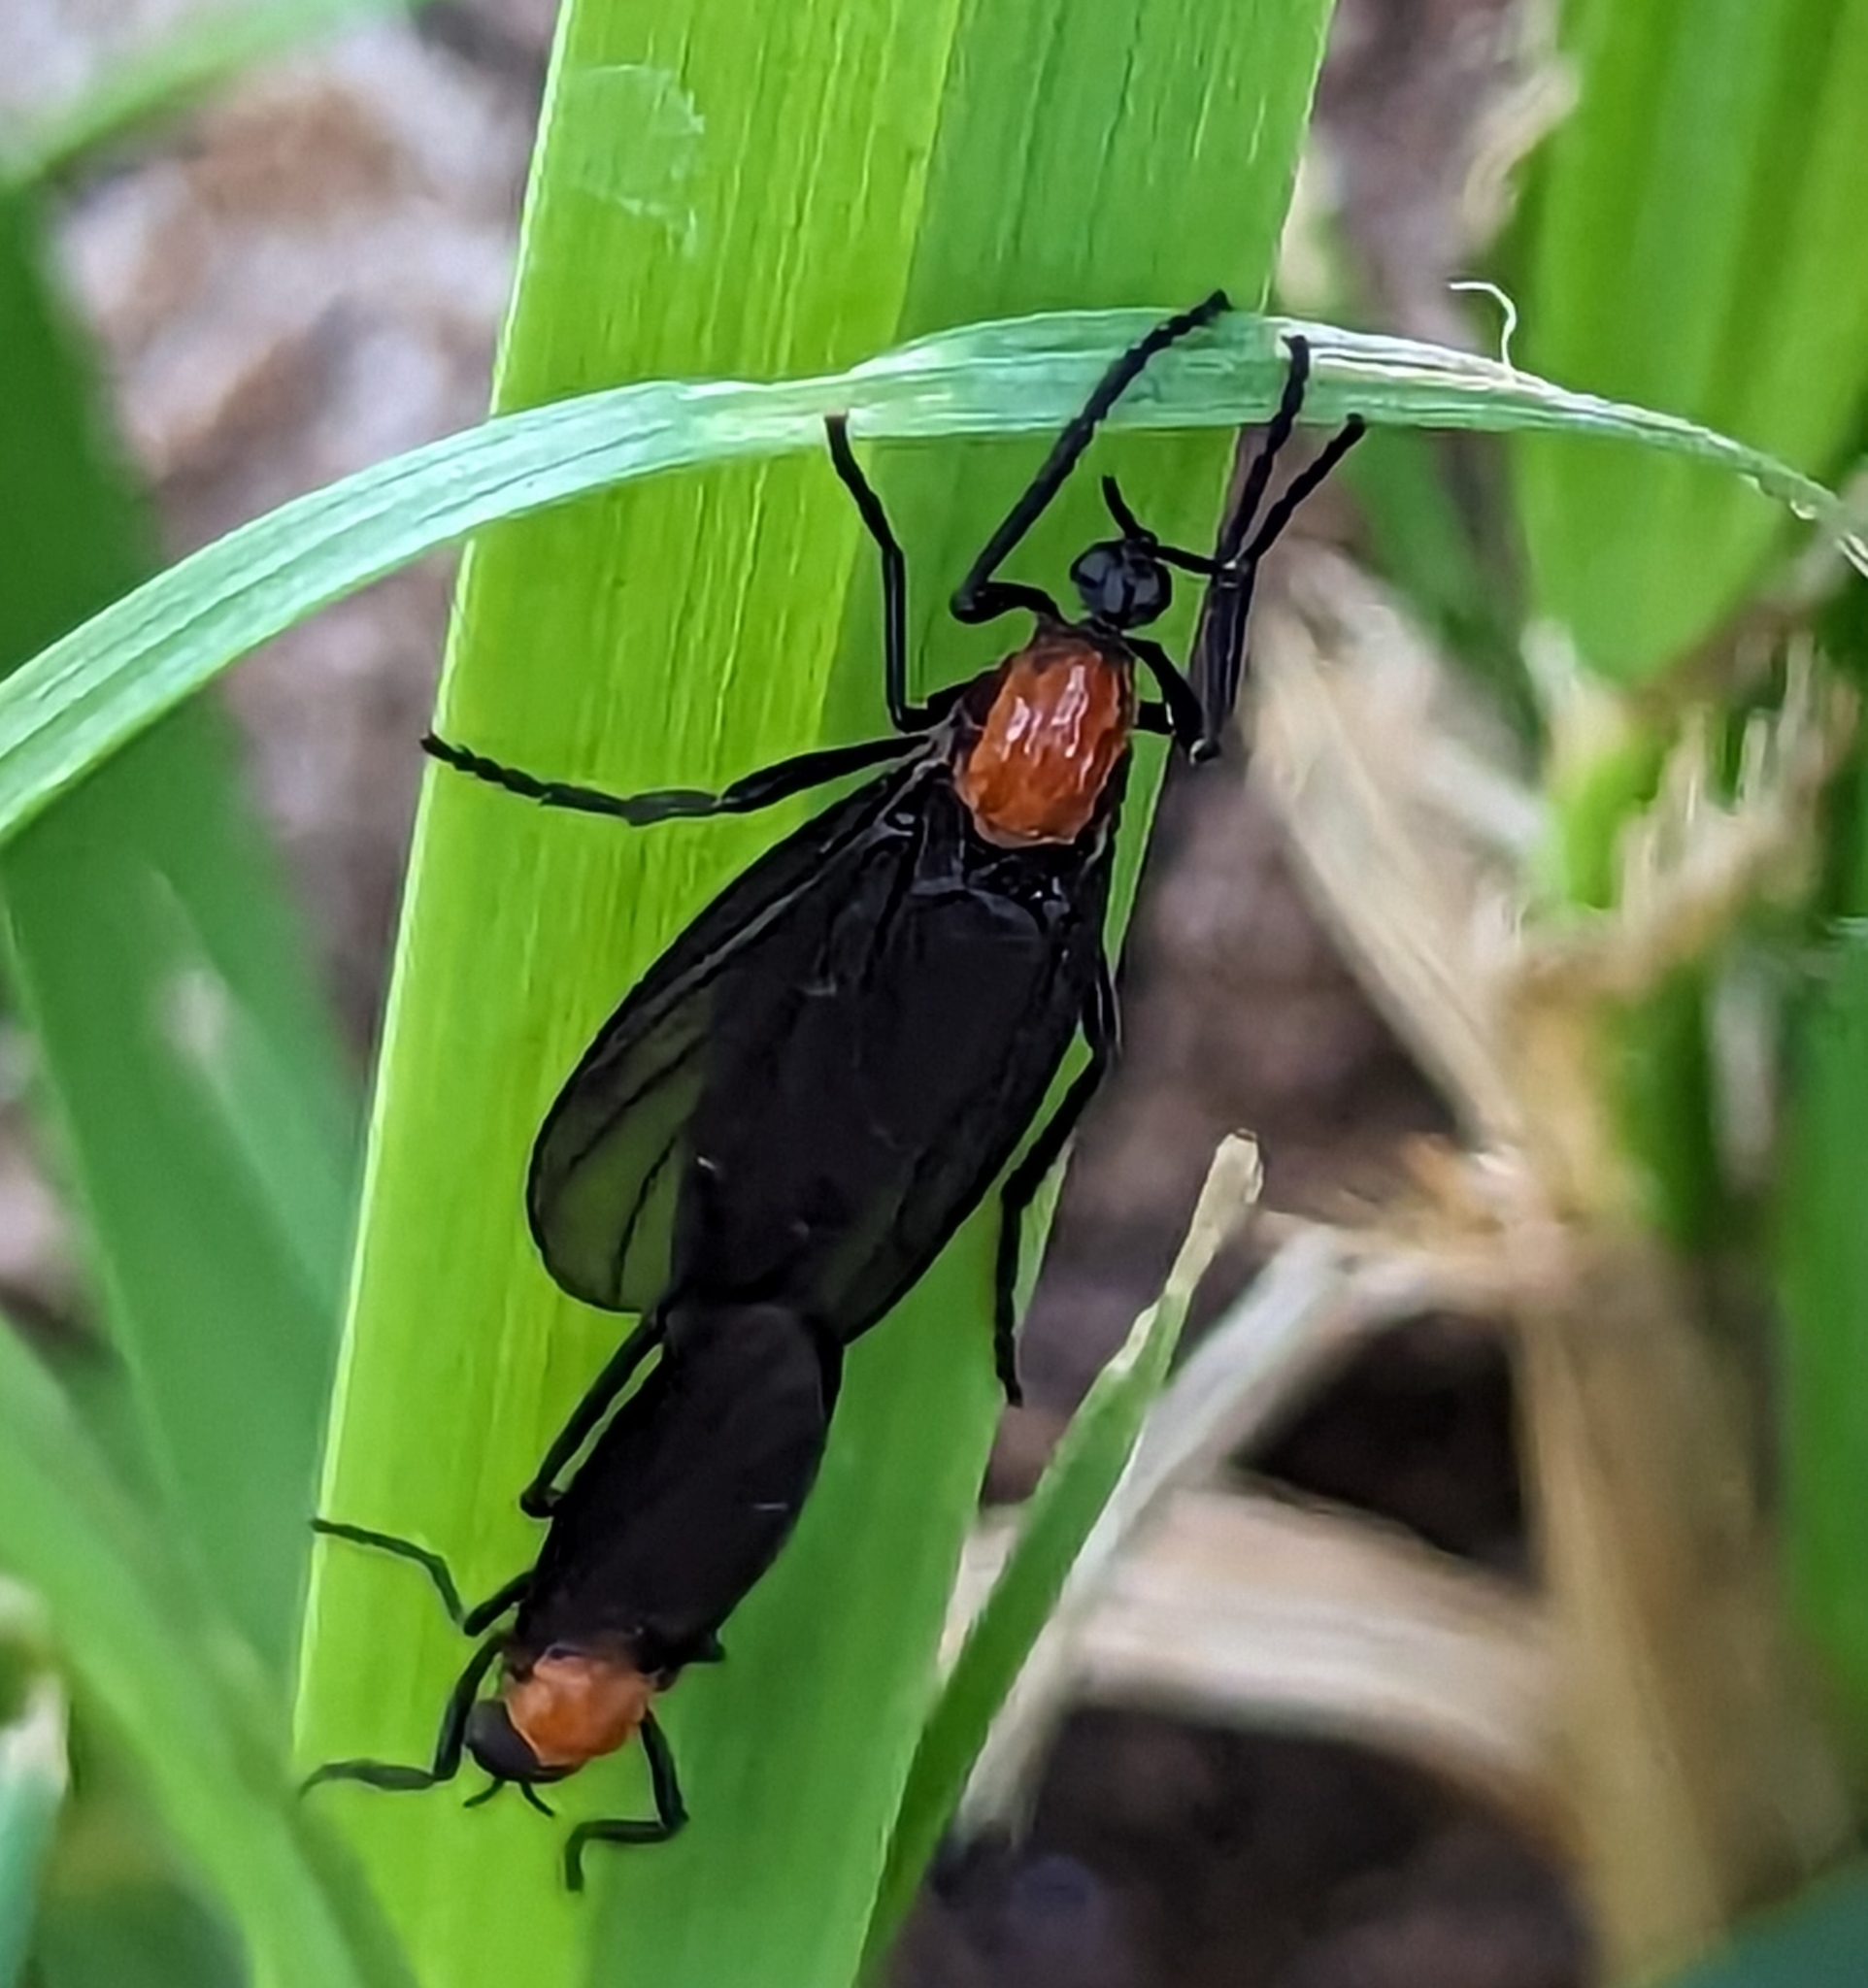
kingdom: Animalia
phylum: Arthropoda
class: Insecta
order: Diptera
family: Bibionidae
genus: Plecia
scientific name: Plecia nearctica
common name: March fly
